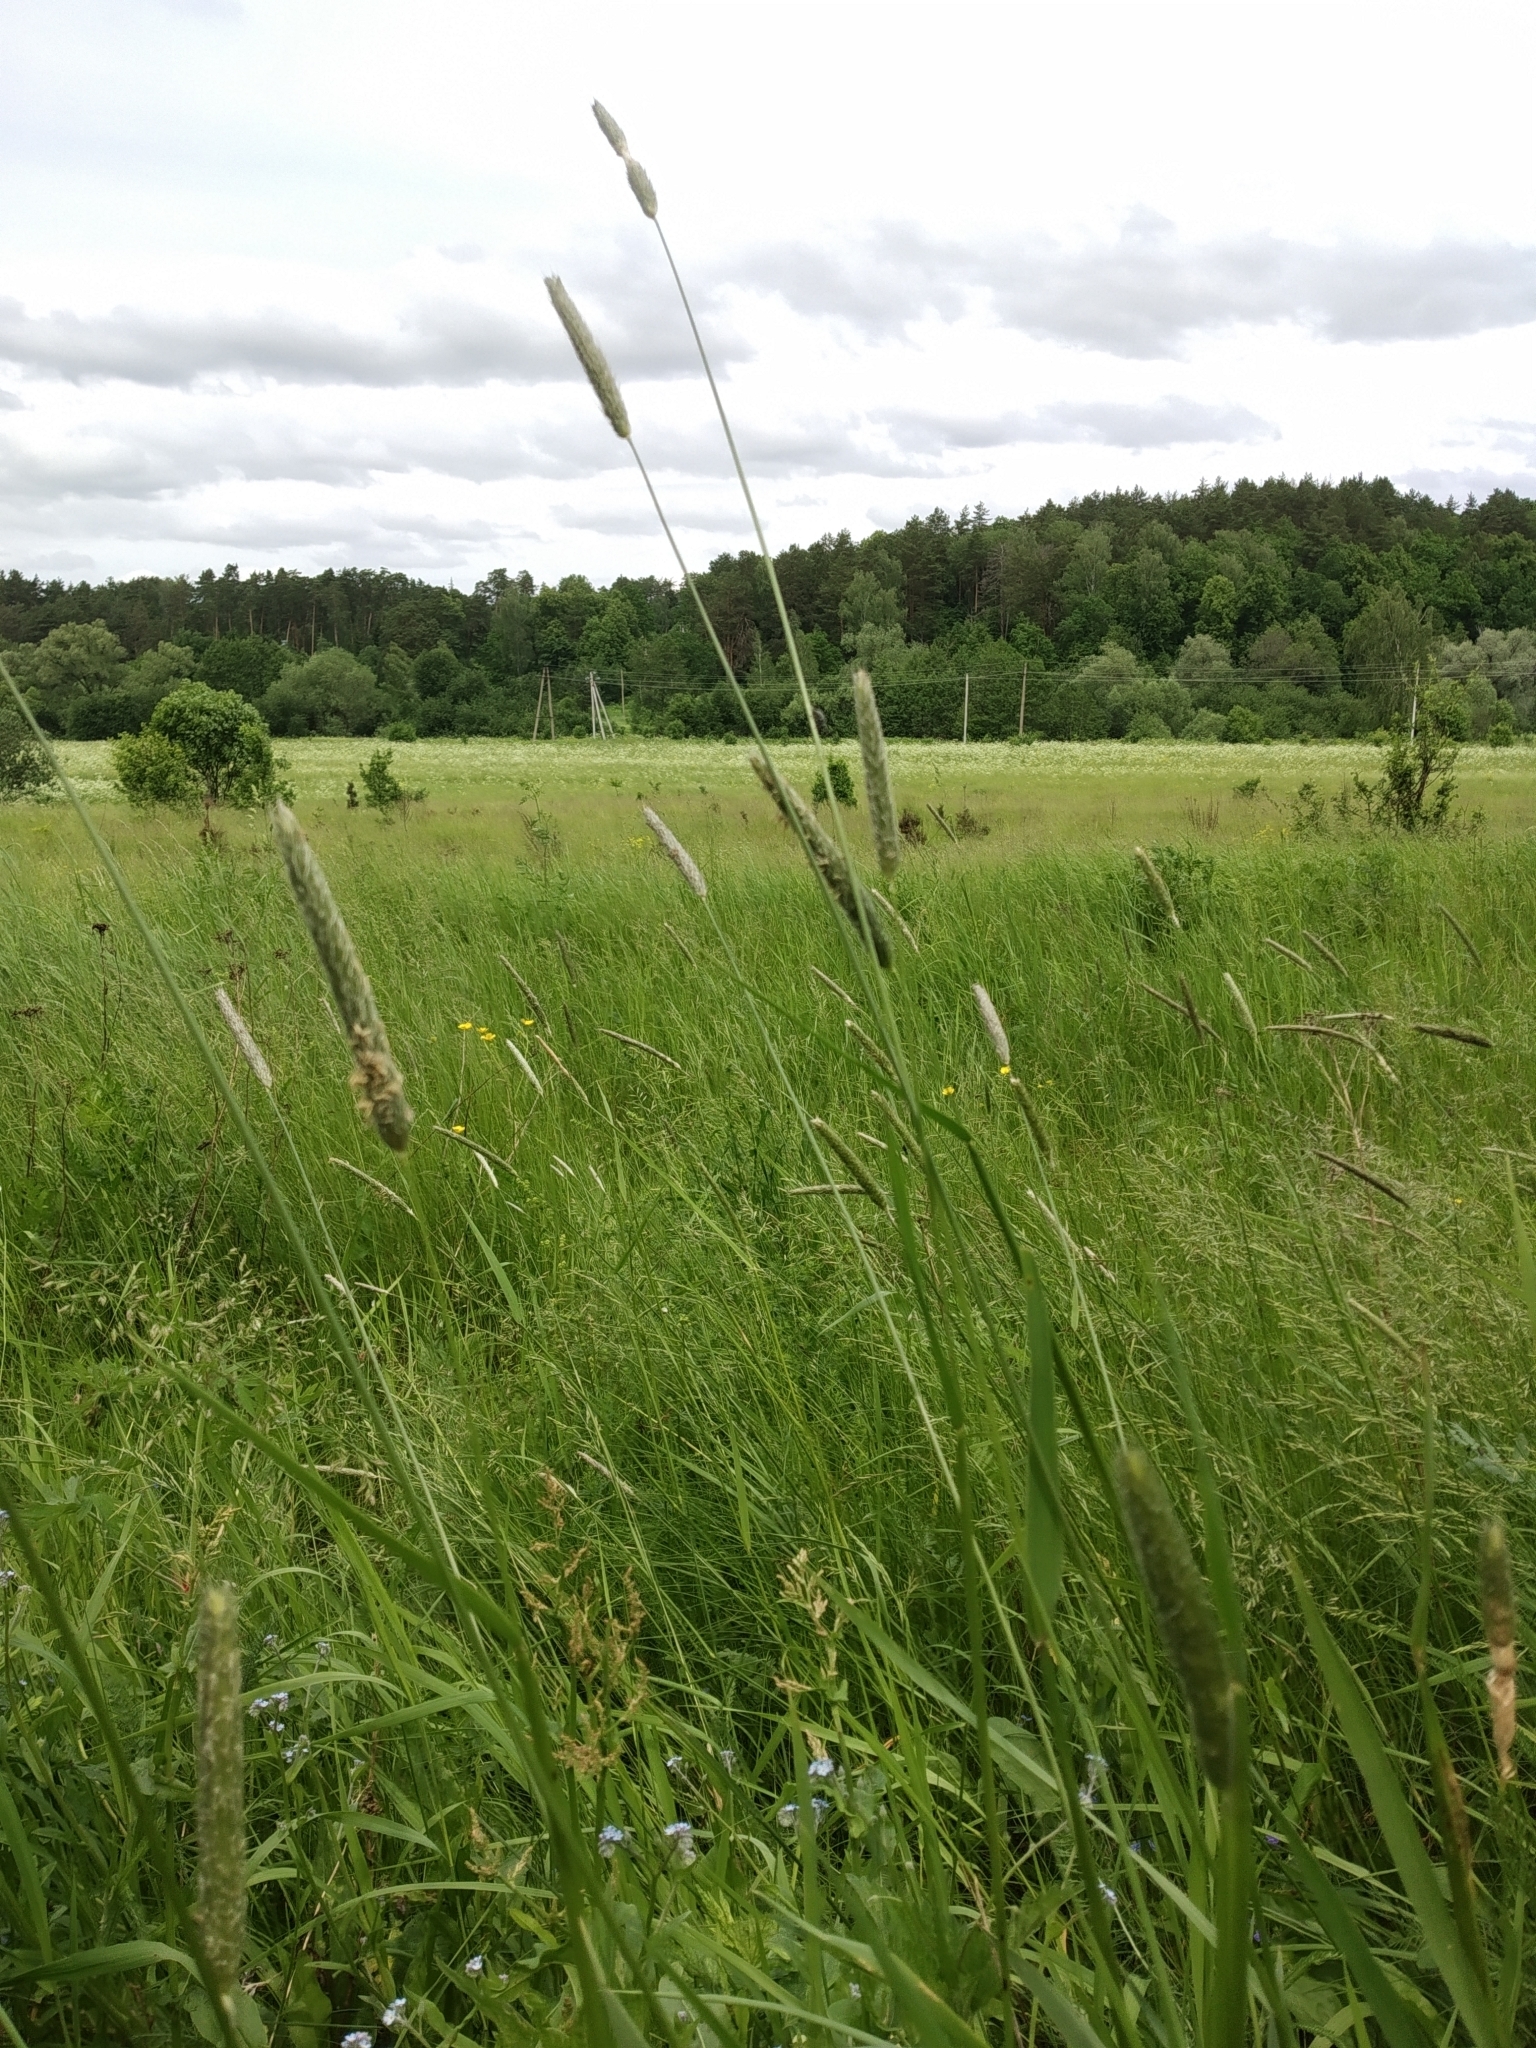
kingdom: Plantae
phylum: Tracheophyta
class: Liliopsida
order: Poales
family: Poaceae
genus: Alopecurus
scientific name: Alopecurus pratensis
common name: Meadow foxtail
